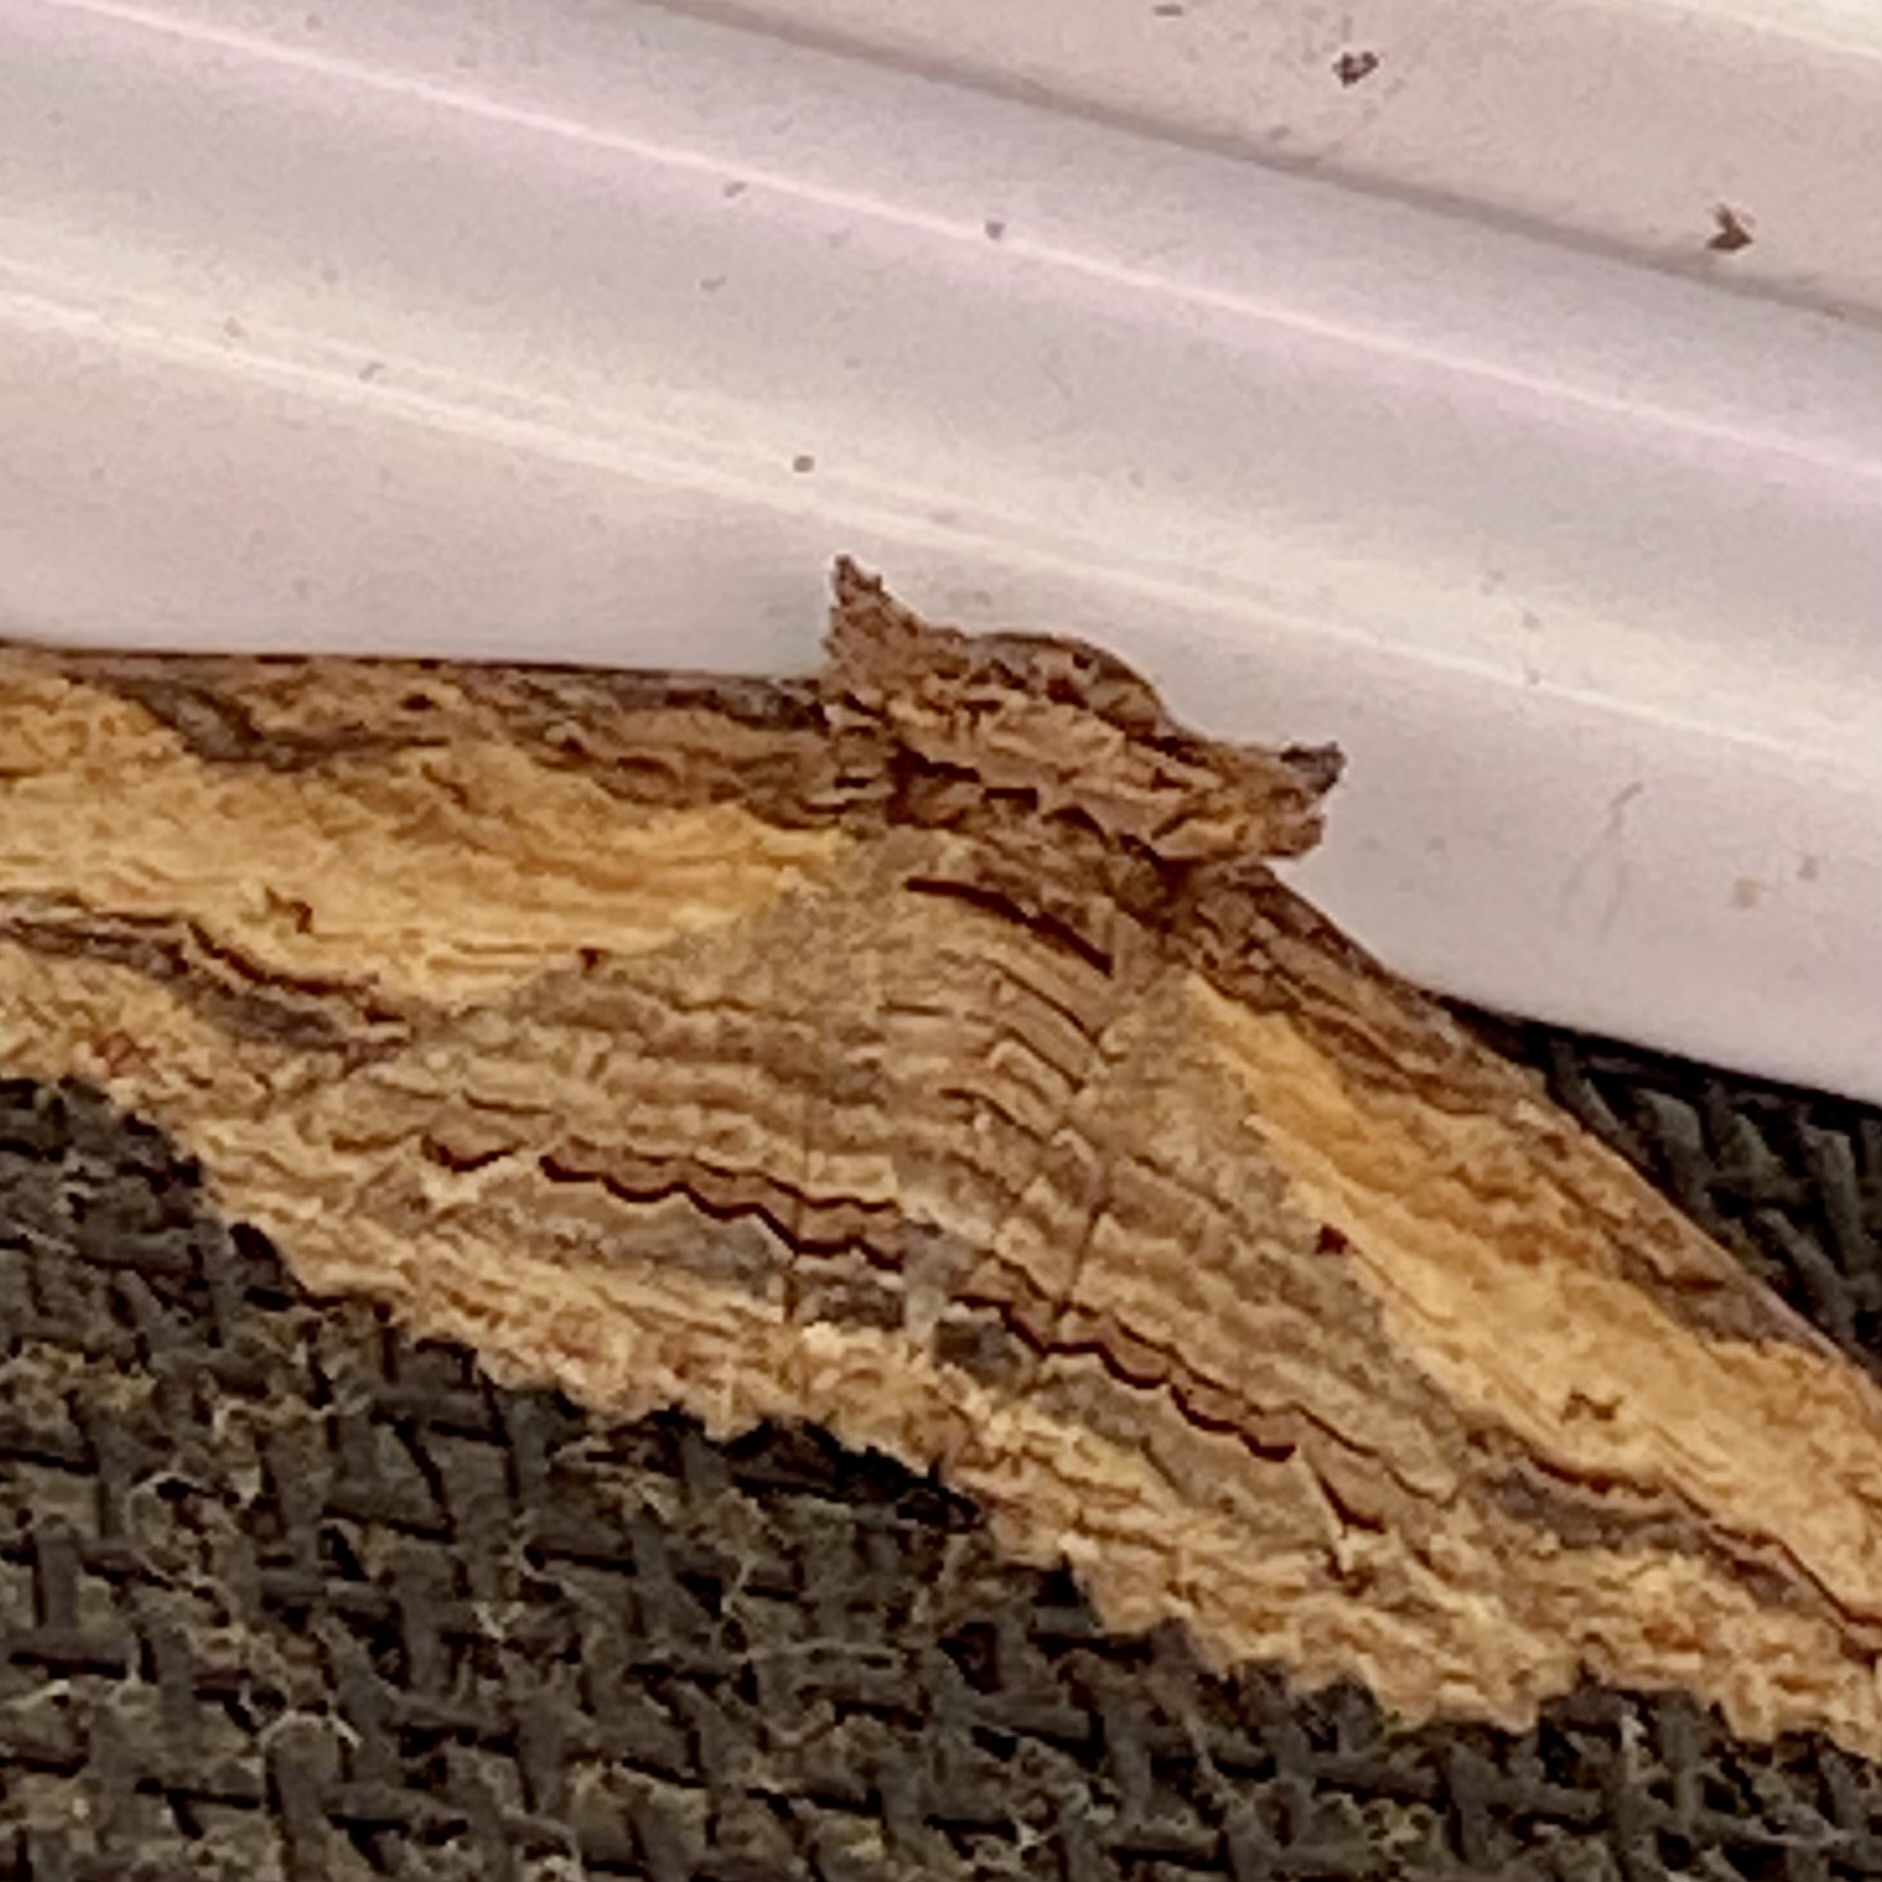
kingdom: Animalia
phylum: Arthropoda
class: Insecta
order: Lepidoptera
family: Erebidae
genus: Zale
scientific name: Zale lunata
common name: Lunate zale moth
